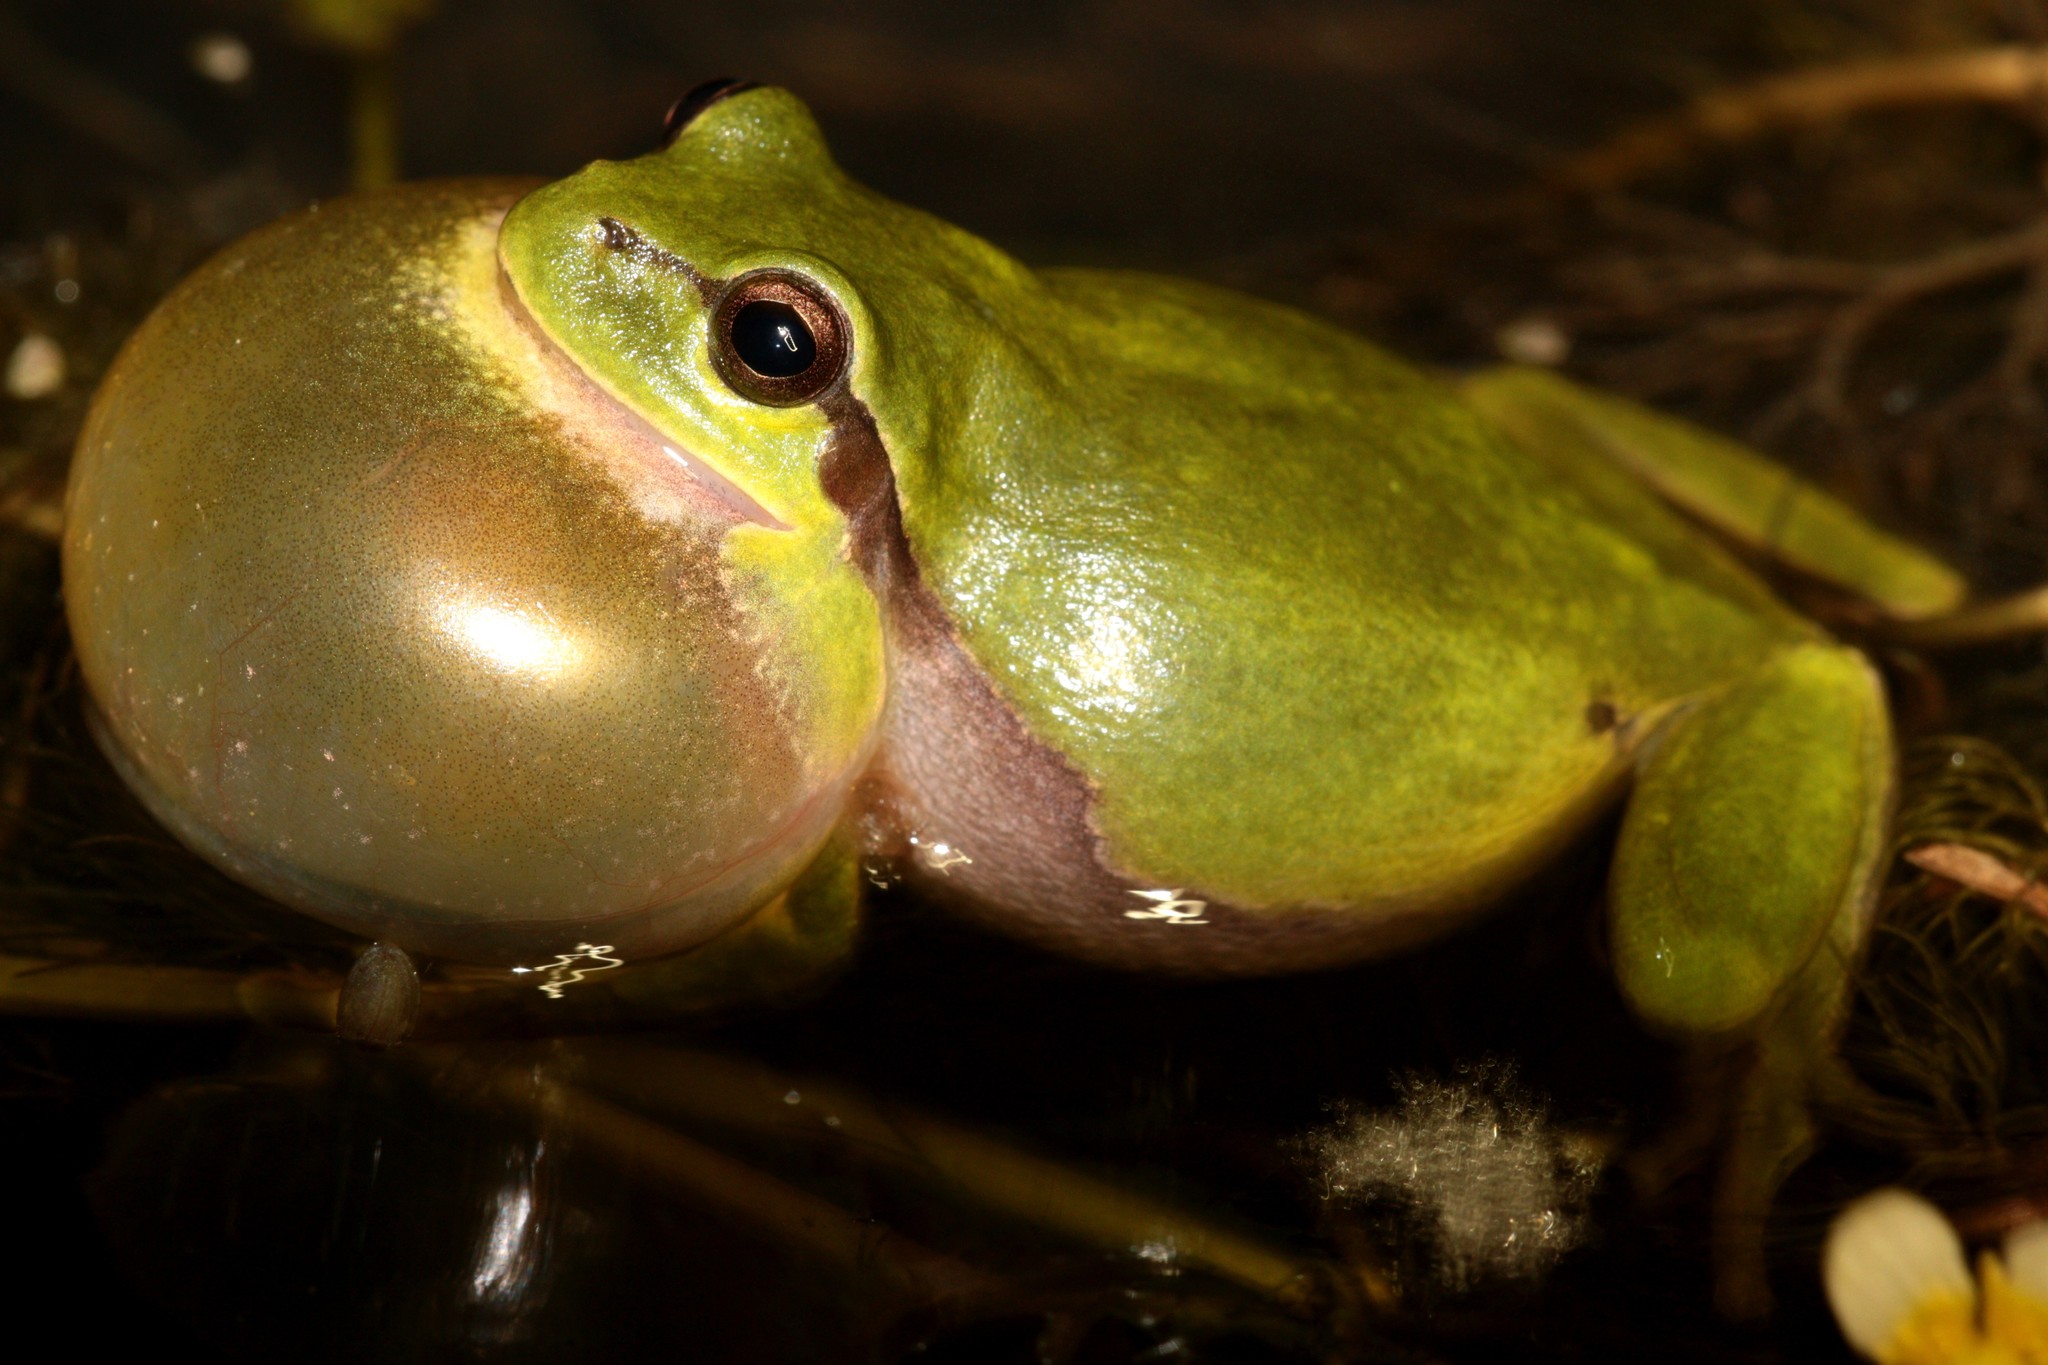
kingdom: Animalia
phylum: Chordata
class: Amphibia
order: Anura
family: Hylidae
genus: Hyla
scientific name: Hyla arborea
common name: Common tree frog
